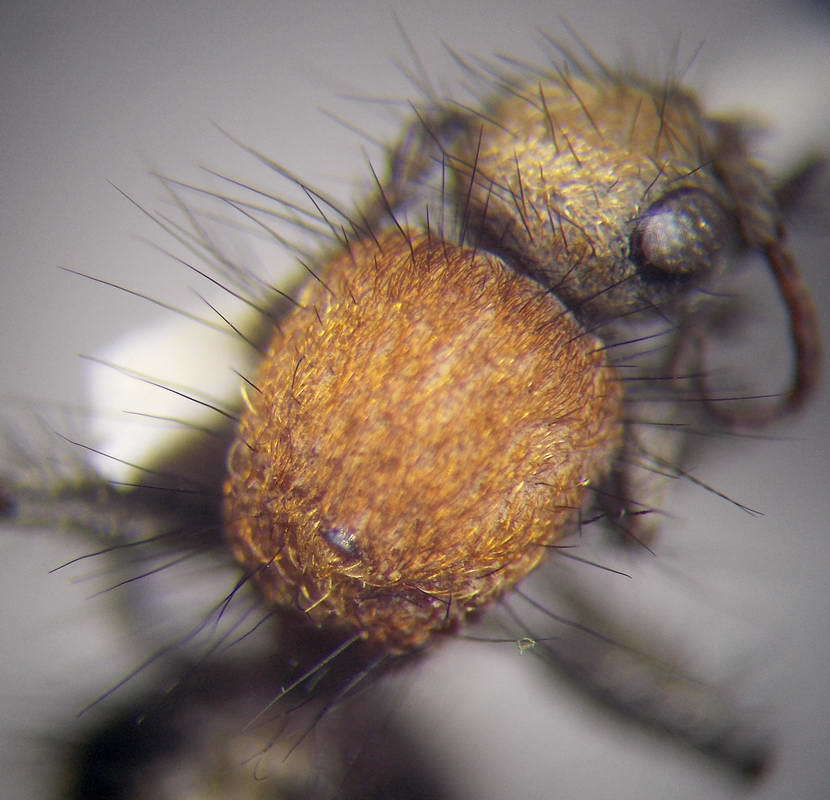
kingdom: Animalia
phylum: Arthropoda
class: Insecta
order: Hymenoptera
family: Mutillidae
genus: Dasylabris
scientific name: Dasylabris regalis
